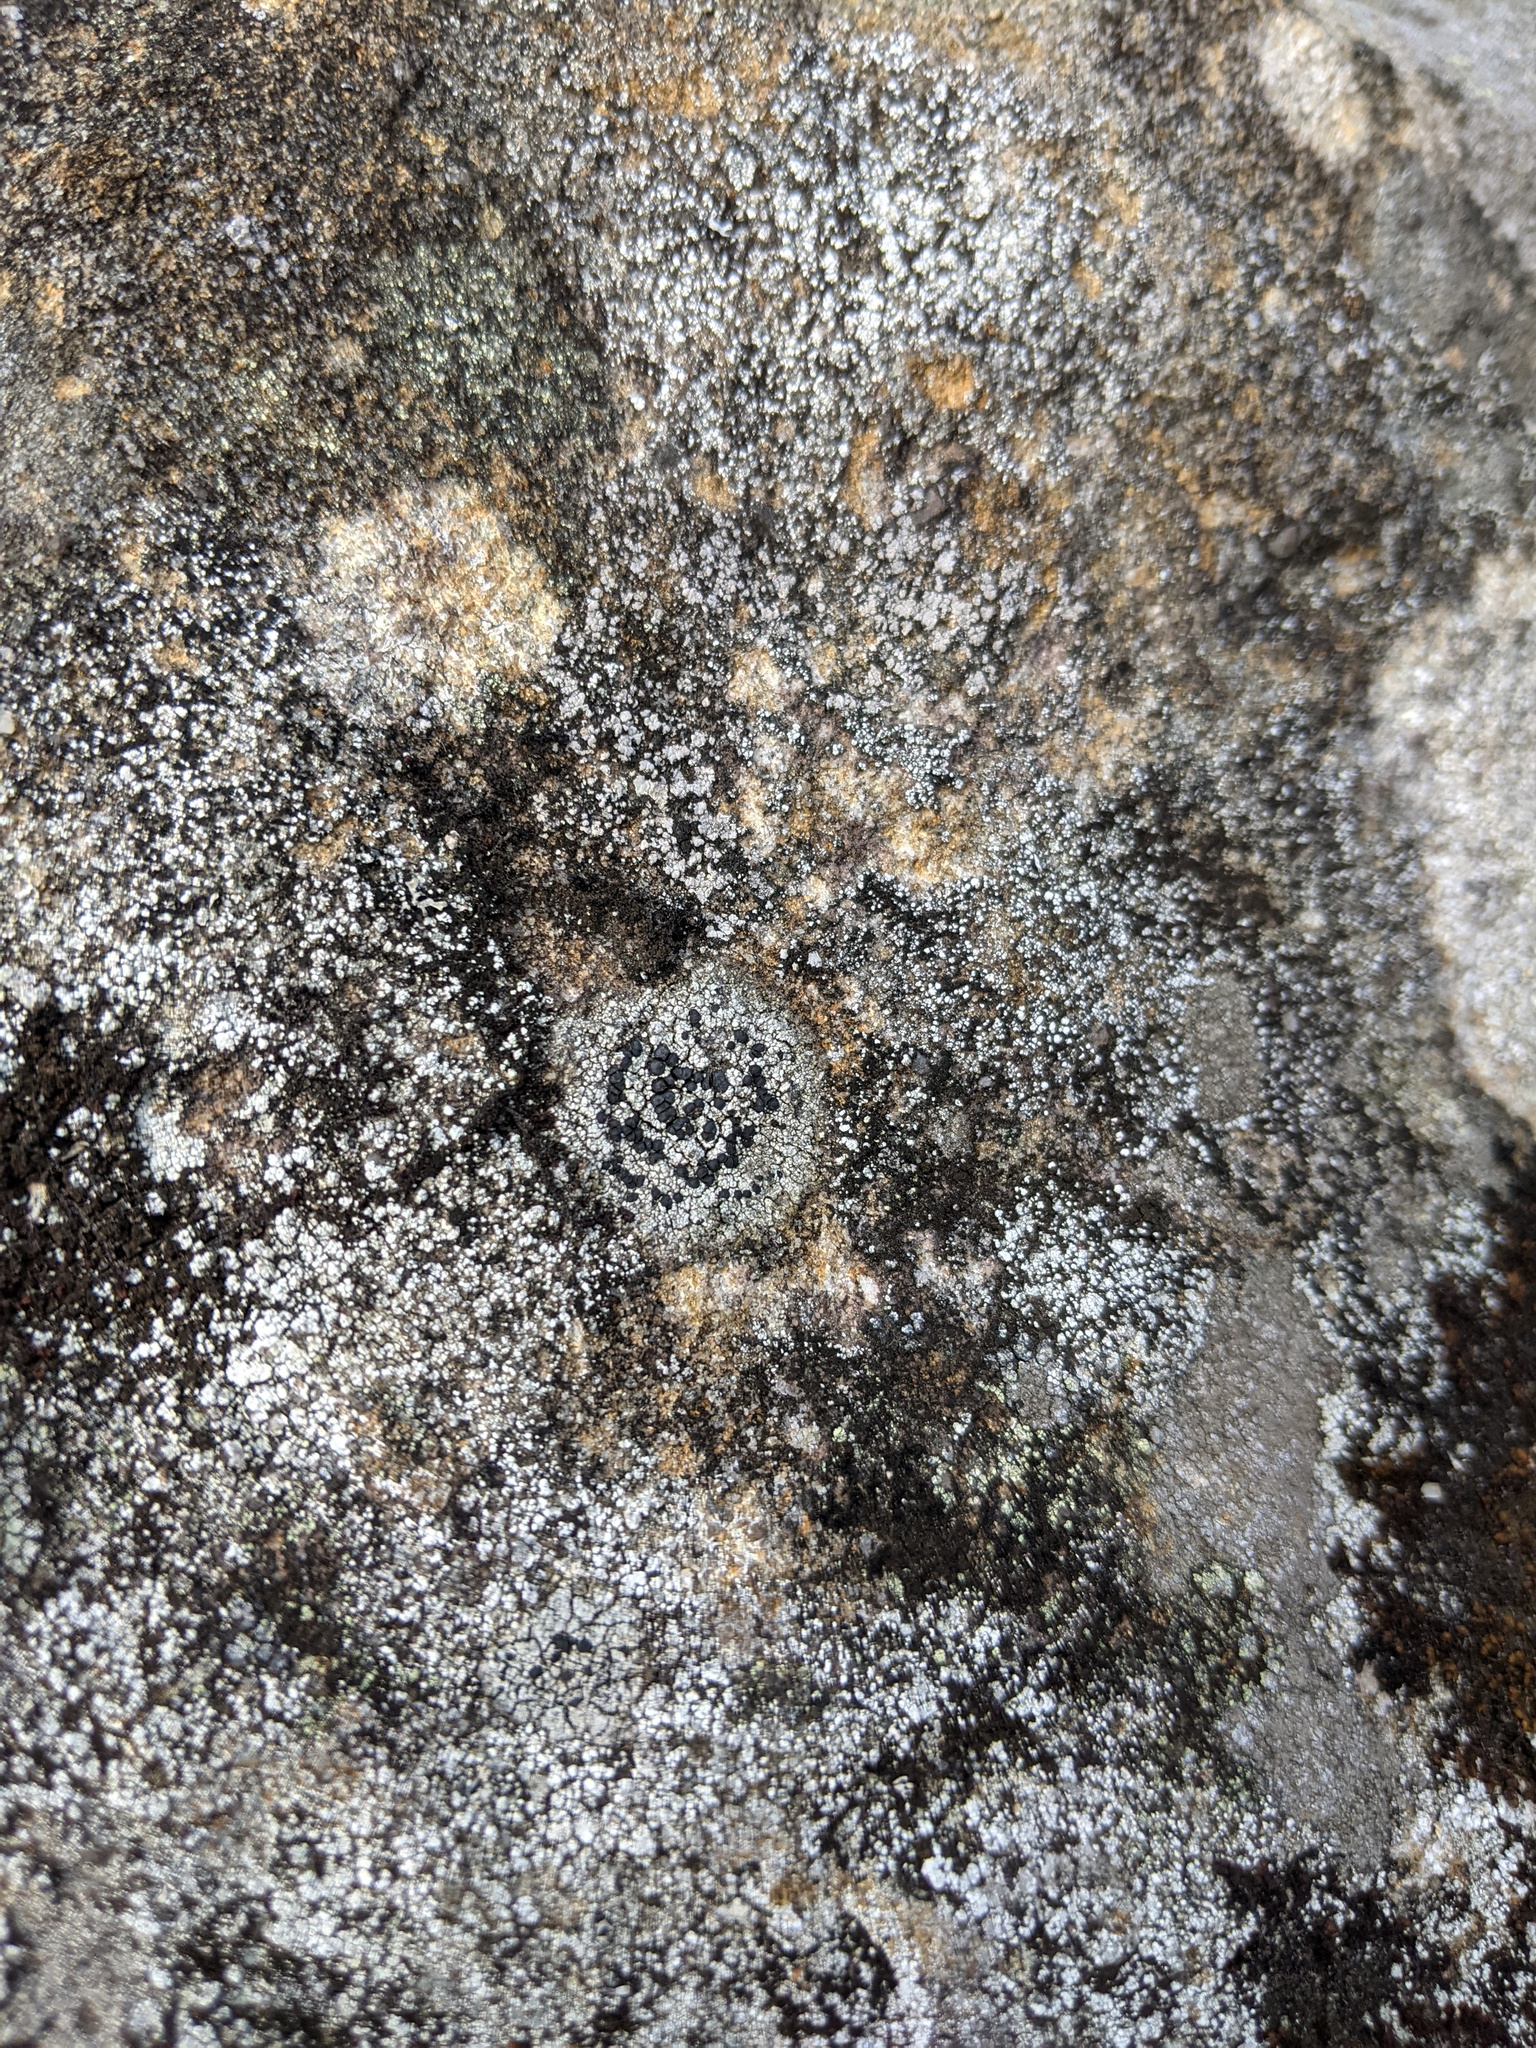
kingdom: Fungi
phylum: Ascomycota
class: Lecanoromycetes
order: Lecideales
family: Lecideaceae
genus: Porpidia
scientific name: Porpidia crustulata
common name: Concentric boulder lichen
